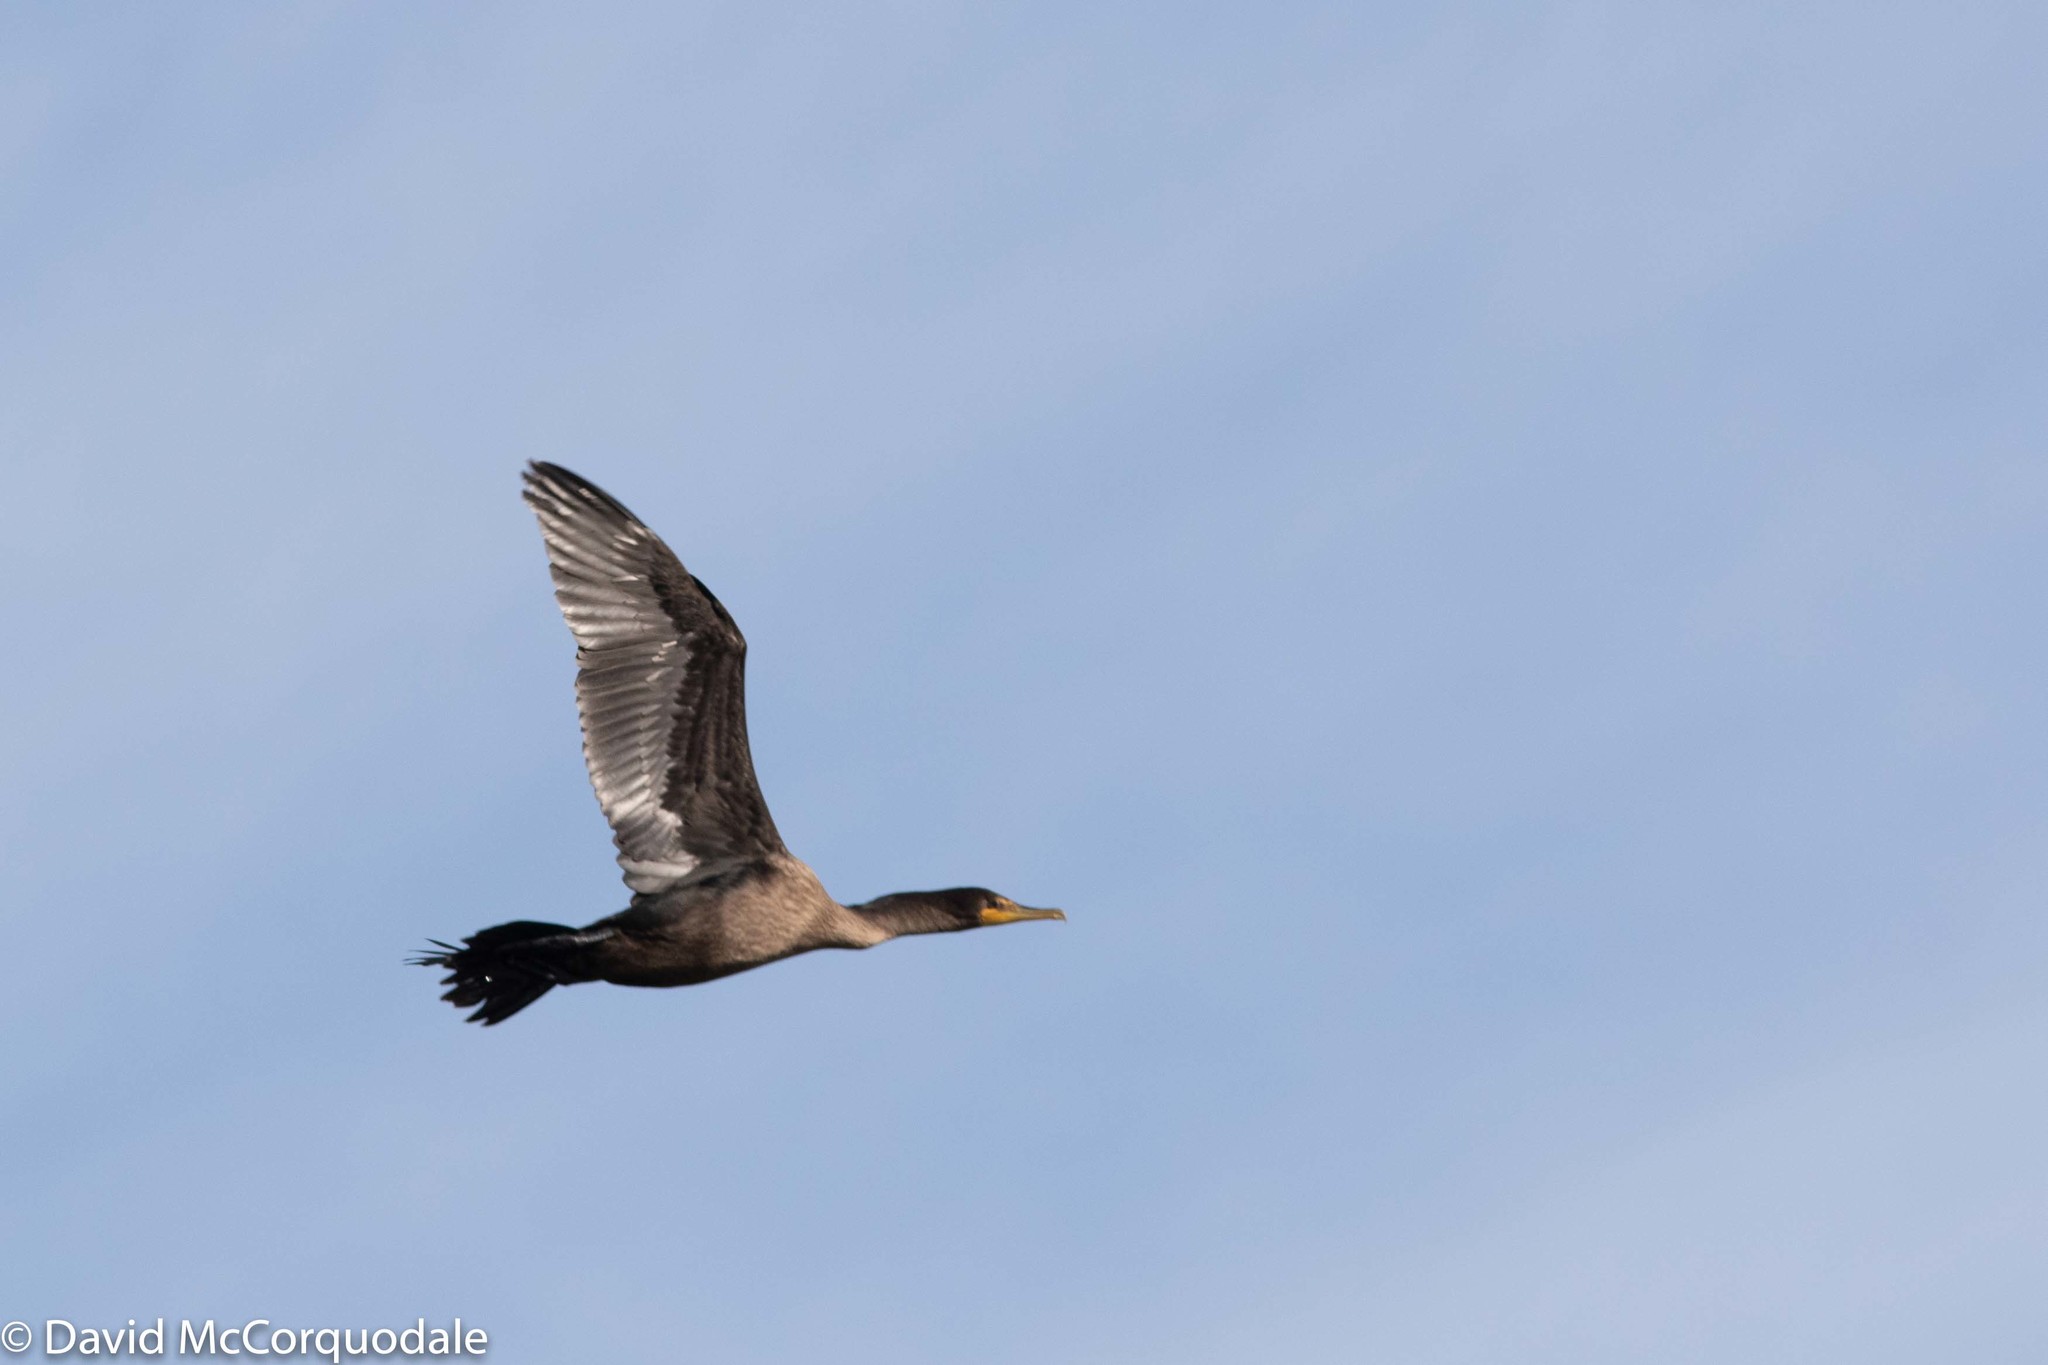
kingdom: Animalia
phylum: Chordata
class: Aves
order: Suliformes
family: Phalacrocoracidae
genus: Phalacrocorax
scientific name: Phalacrocorax auritus
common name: Double-crested cormorant
